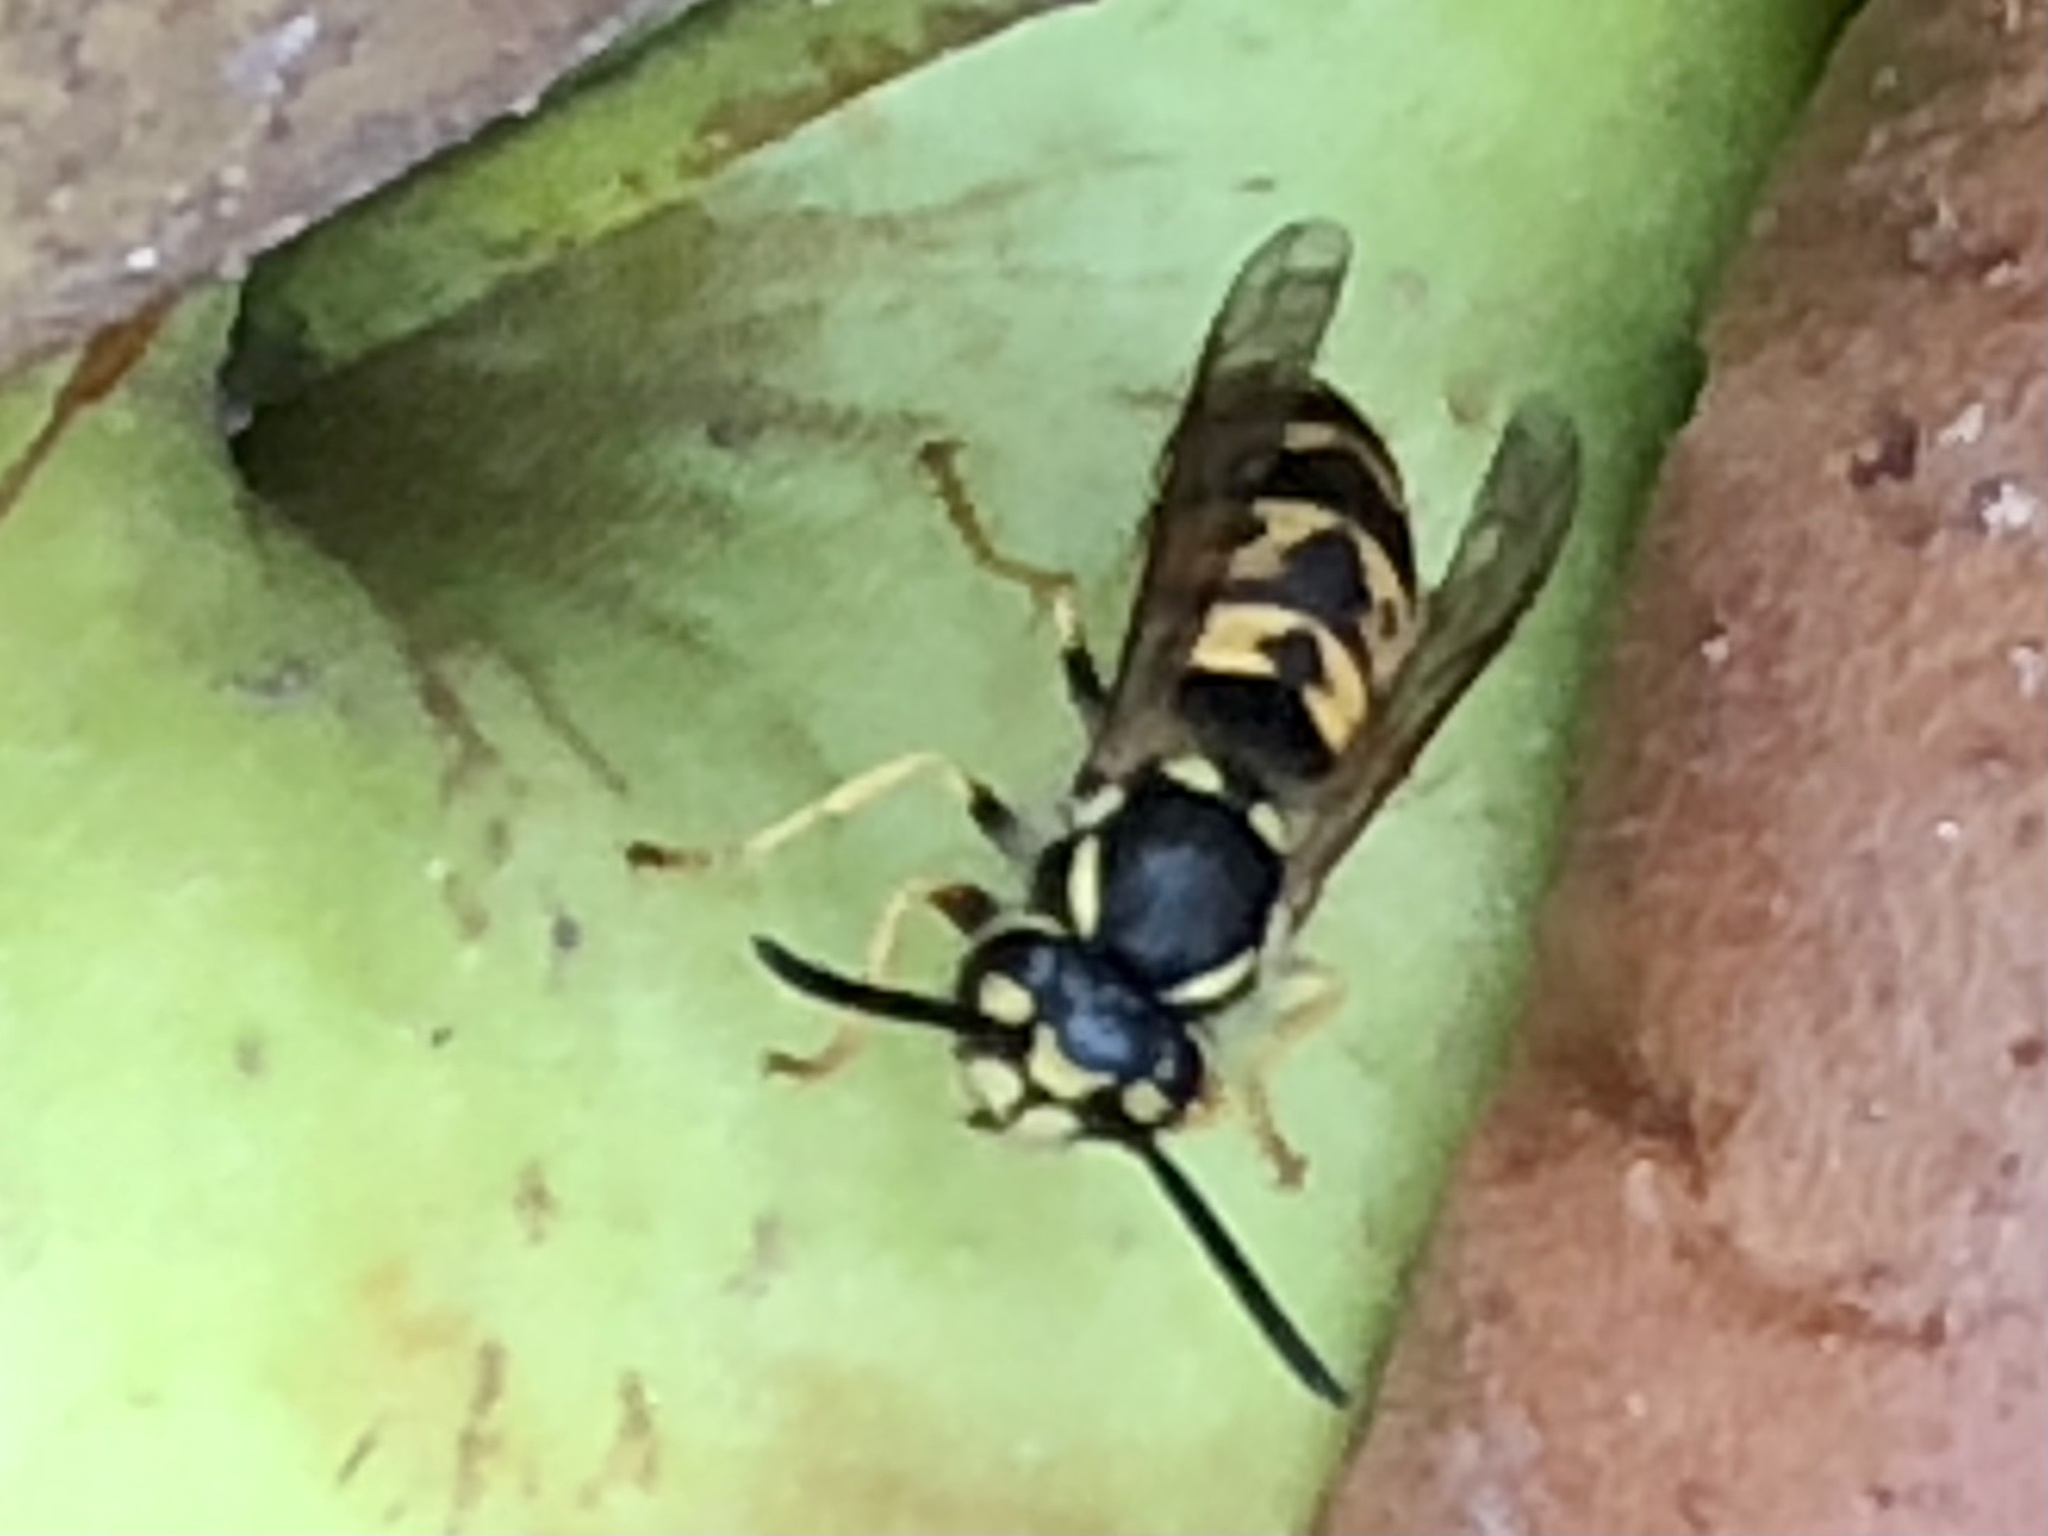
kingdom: Animalia
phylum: Arthropoda
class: Insecta
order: Hymenoptera
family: Vespidae
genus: Vespula
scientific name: Vespula germanica
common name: German wasp
